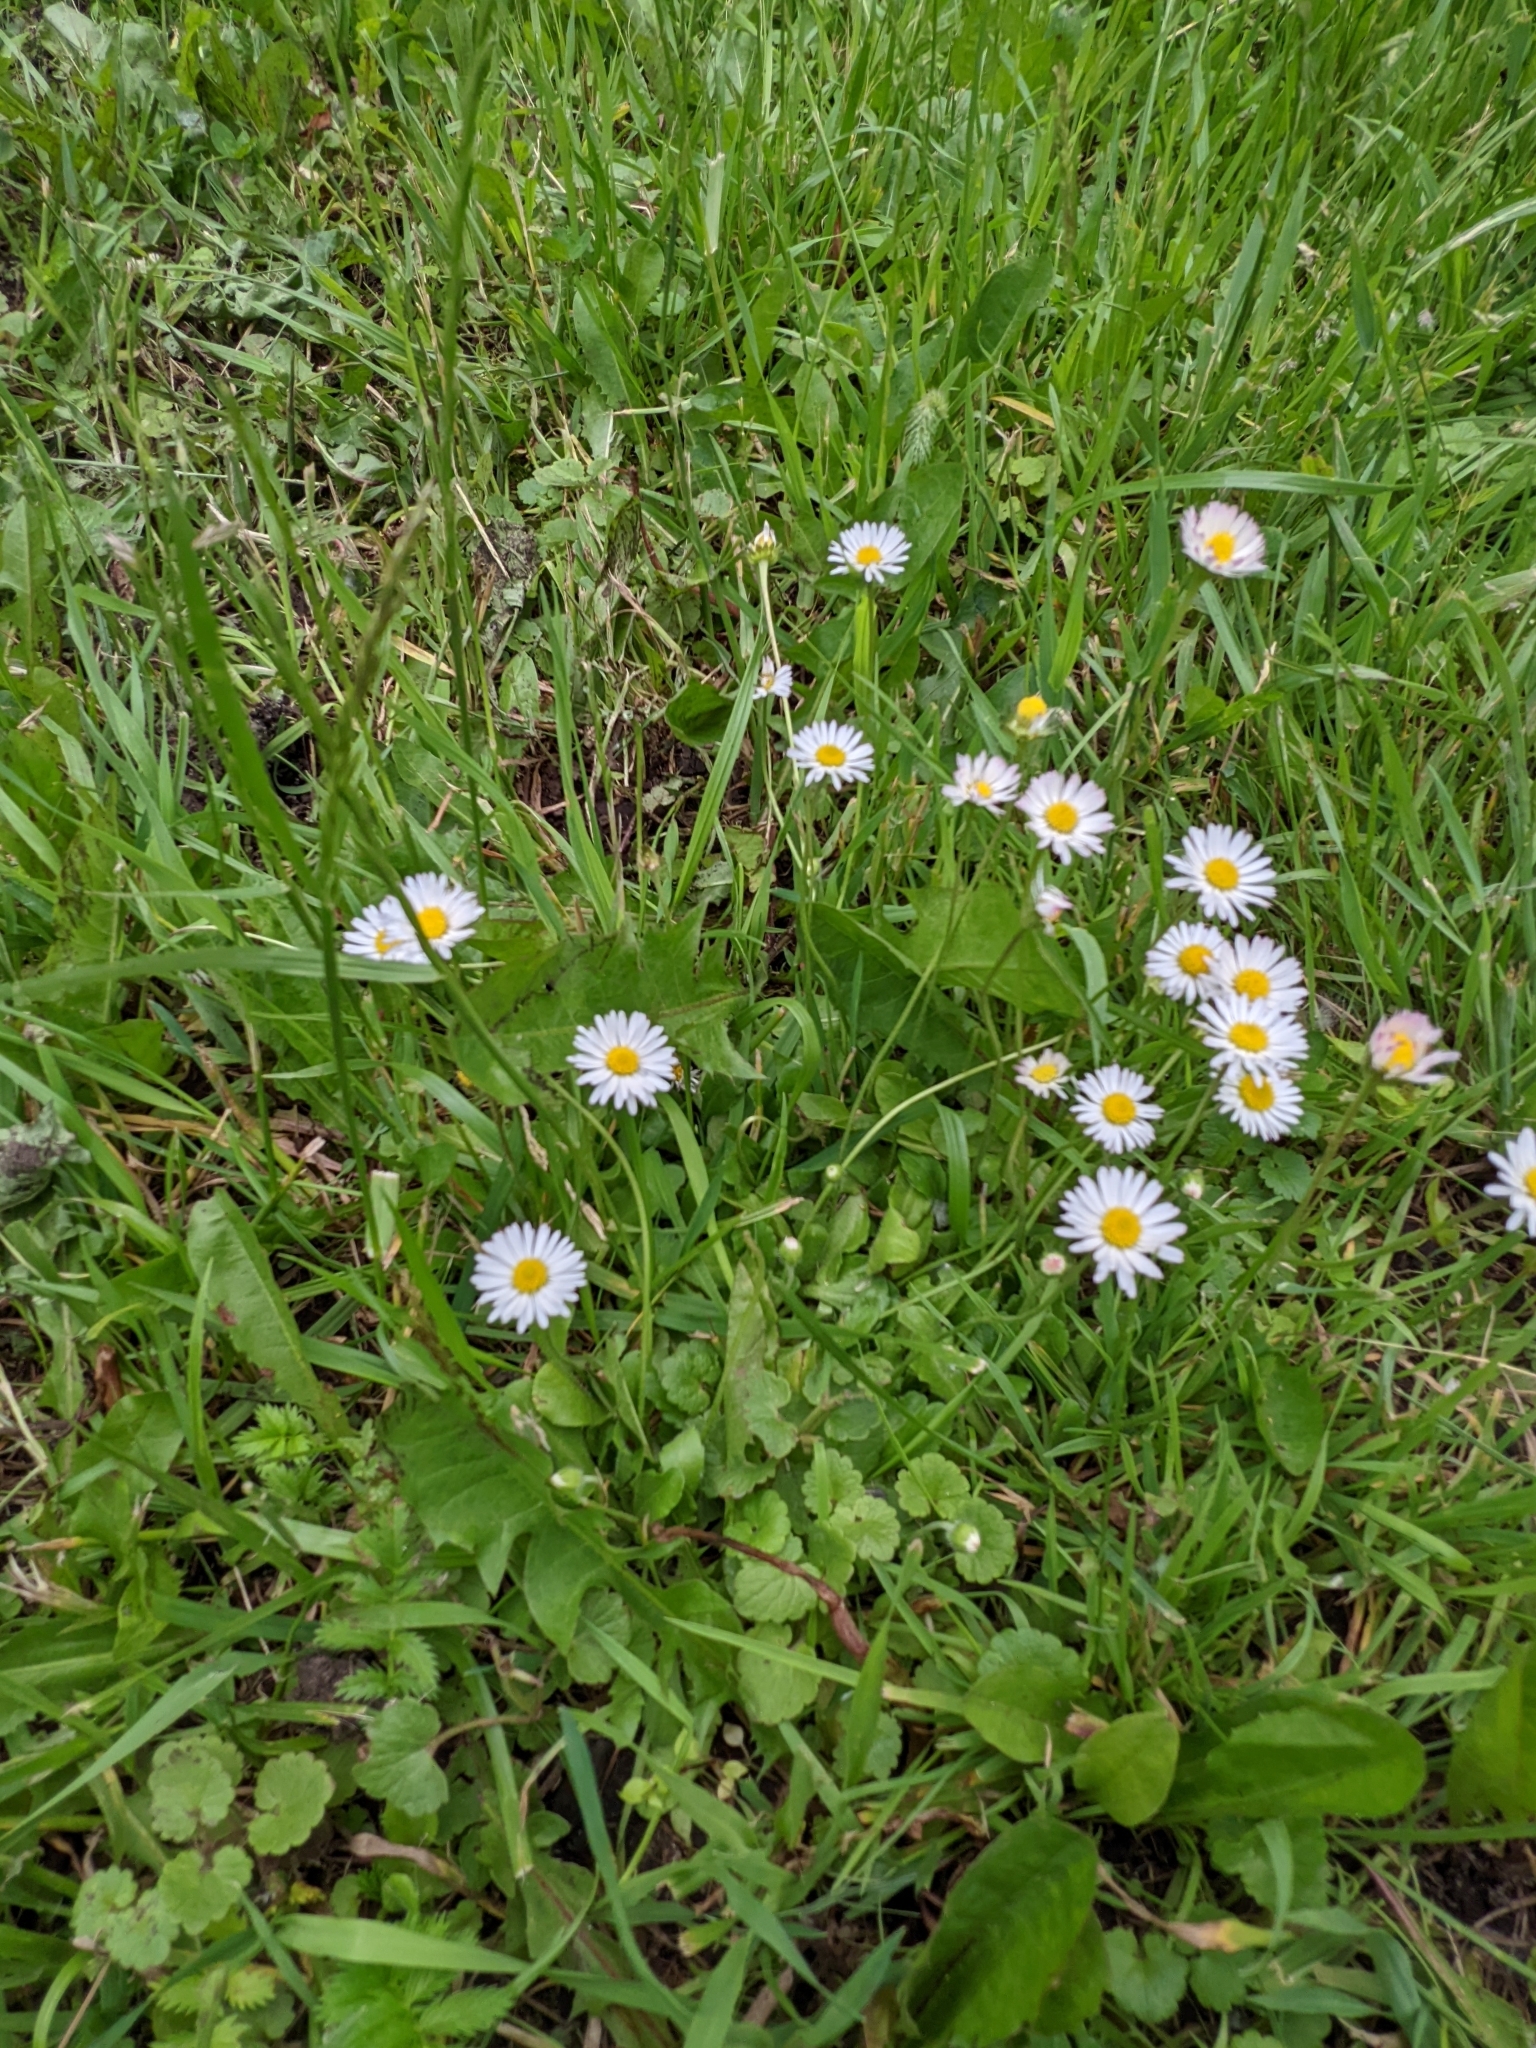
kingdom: Plantae
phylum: Tracheophyta
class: Magnoliopsida
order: Asterales
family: Asteraceae
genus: Bellis
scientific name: Bellis perennis
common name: Lawndaisy
